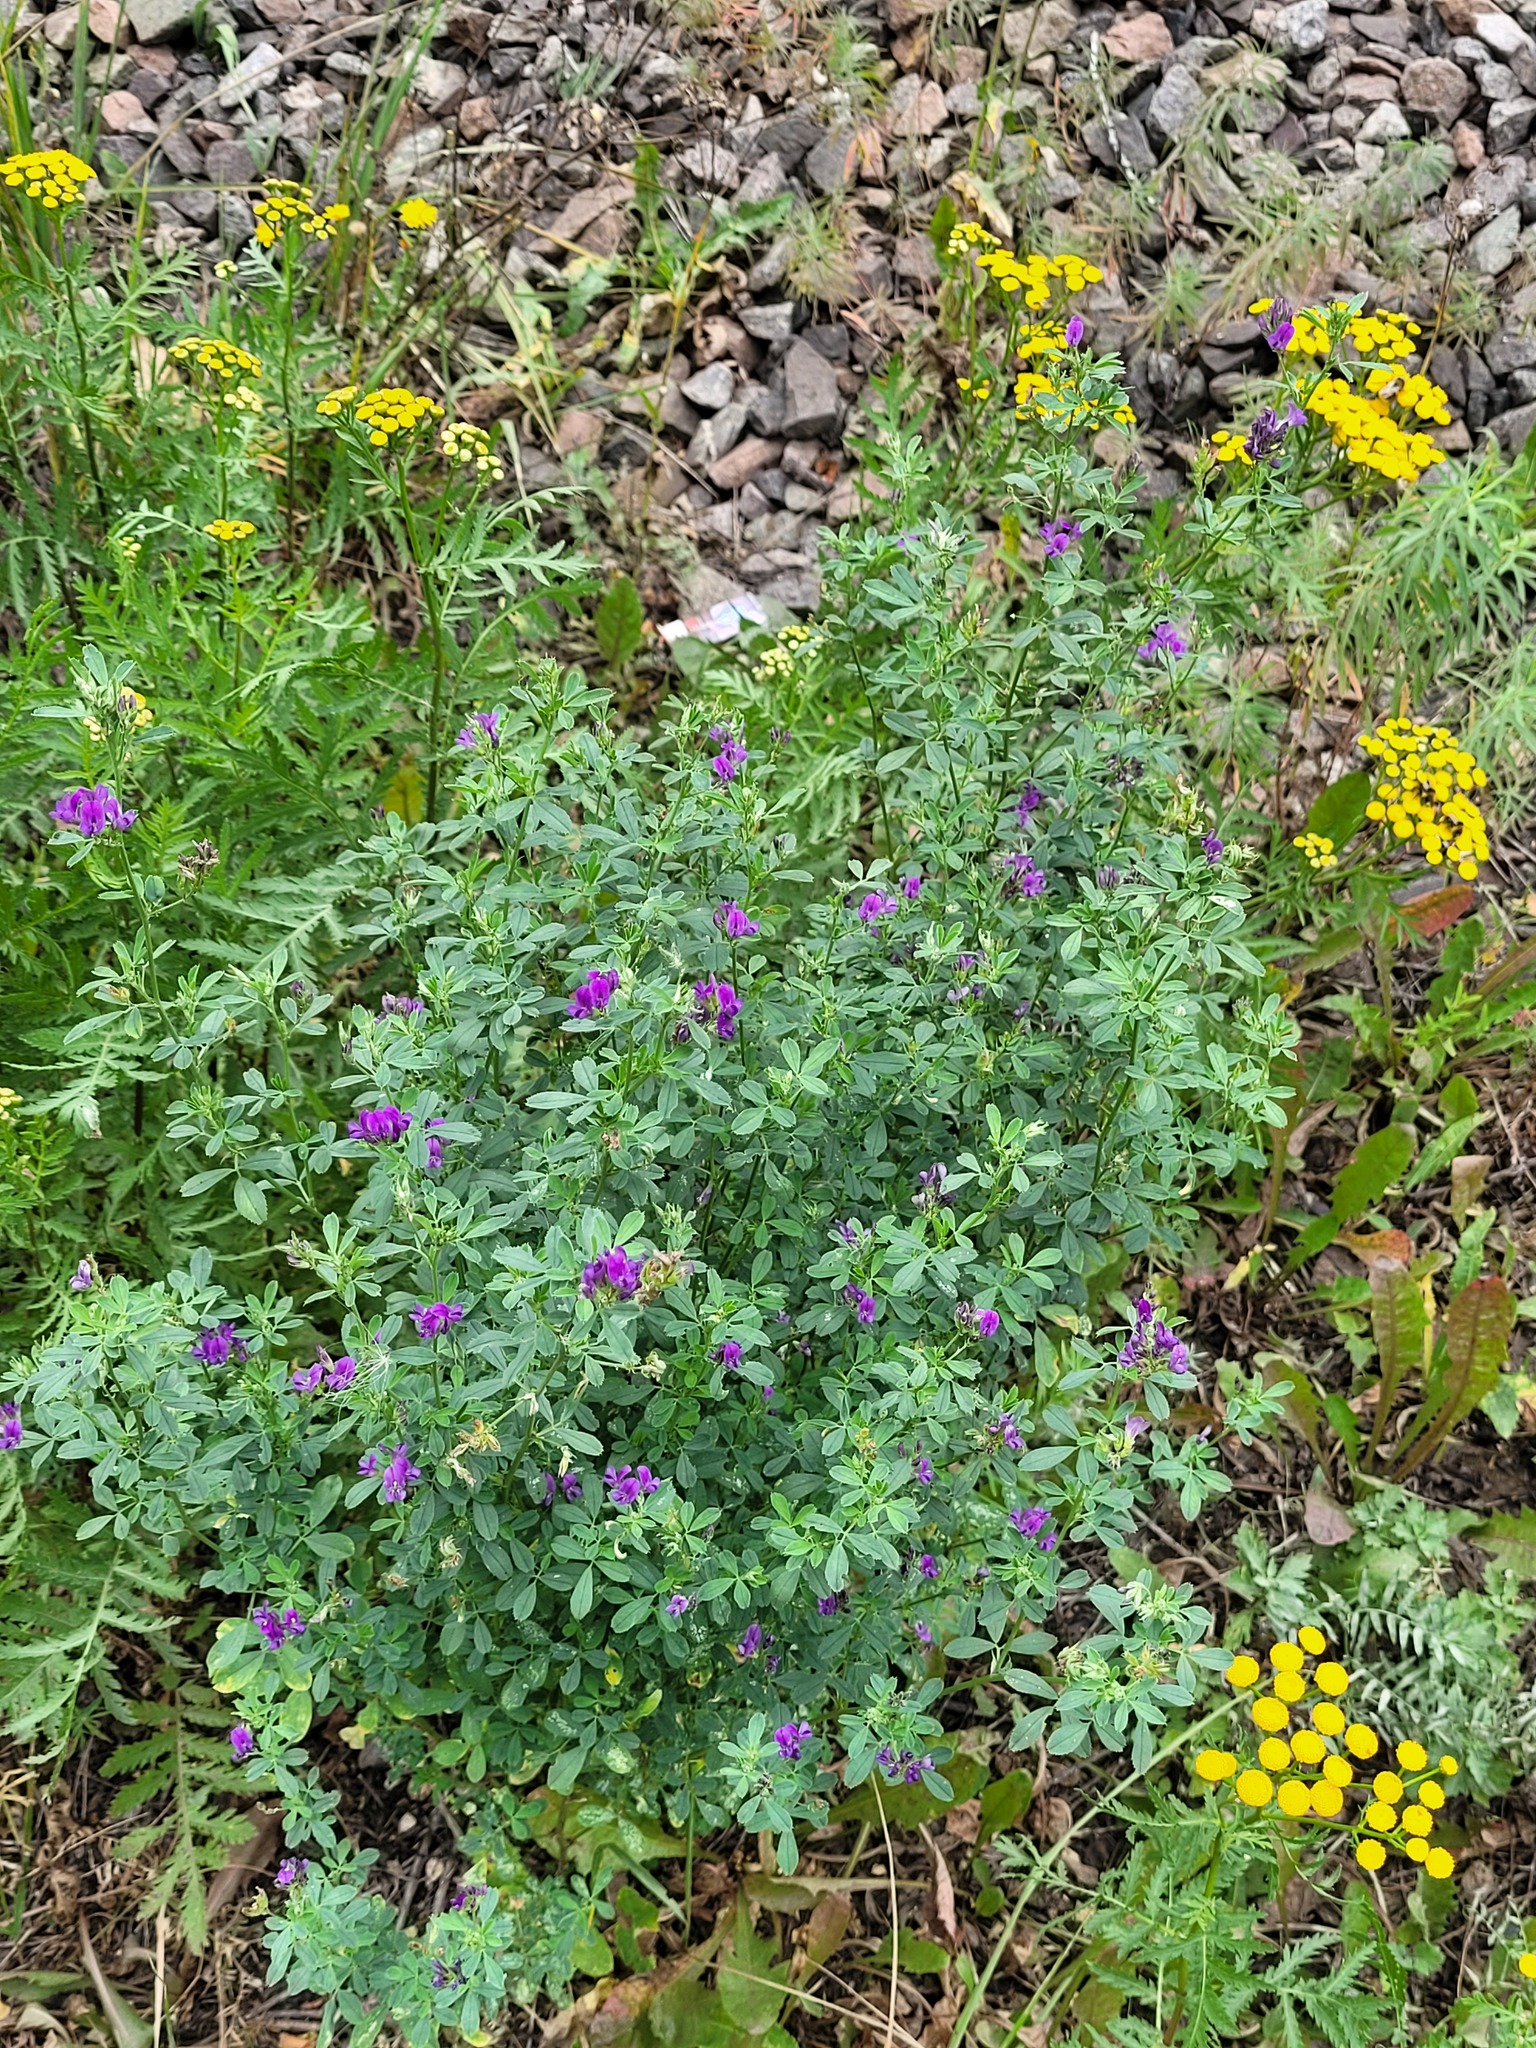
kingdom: Plantae
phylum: Tracheophyta
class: Magnoliopsida
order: Fabales
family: Fabaceae
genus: Medicago
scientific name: Medicago sativa
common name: Alfalfa
